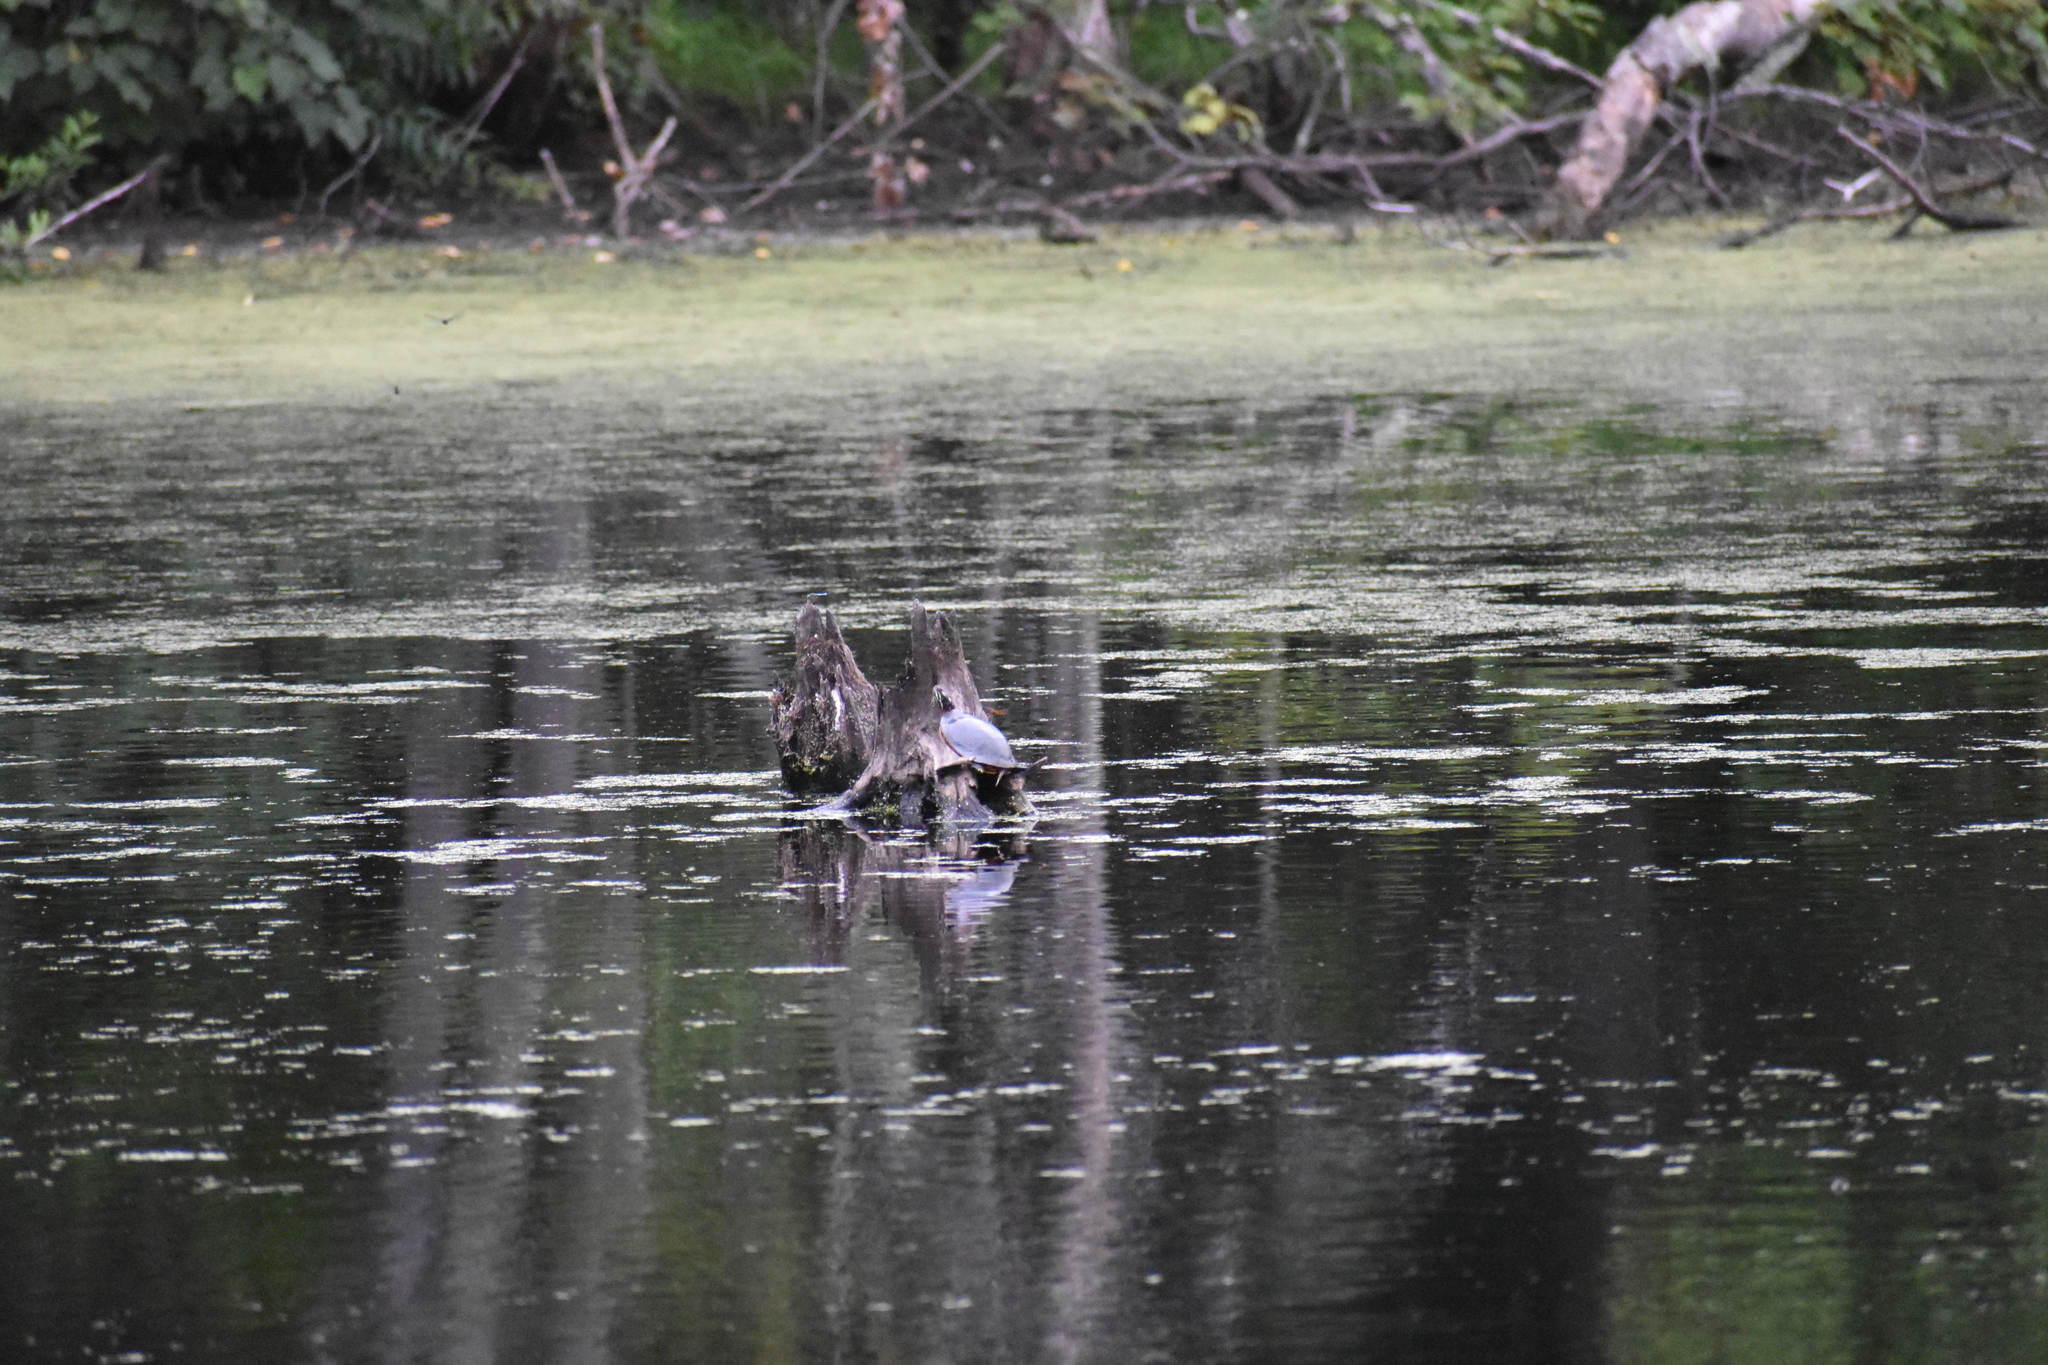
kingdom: Animalia
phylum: Chordata
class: Testudines
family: Emydidae
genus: Chrysemys
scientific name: Chrysemys picta
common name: Painted turtle
